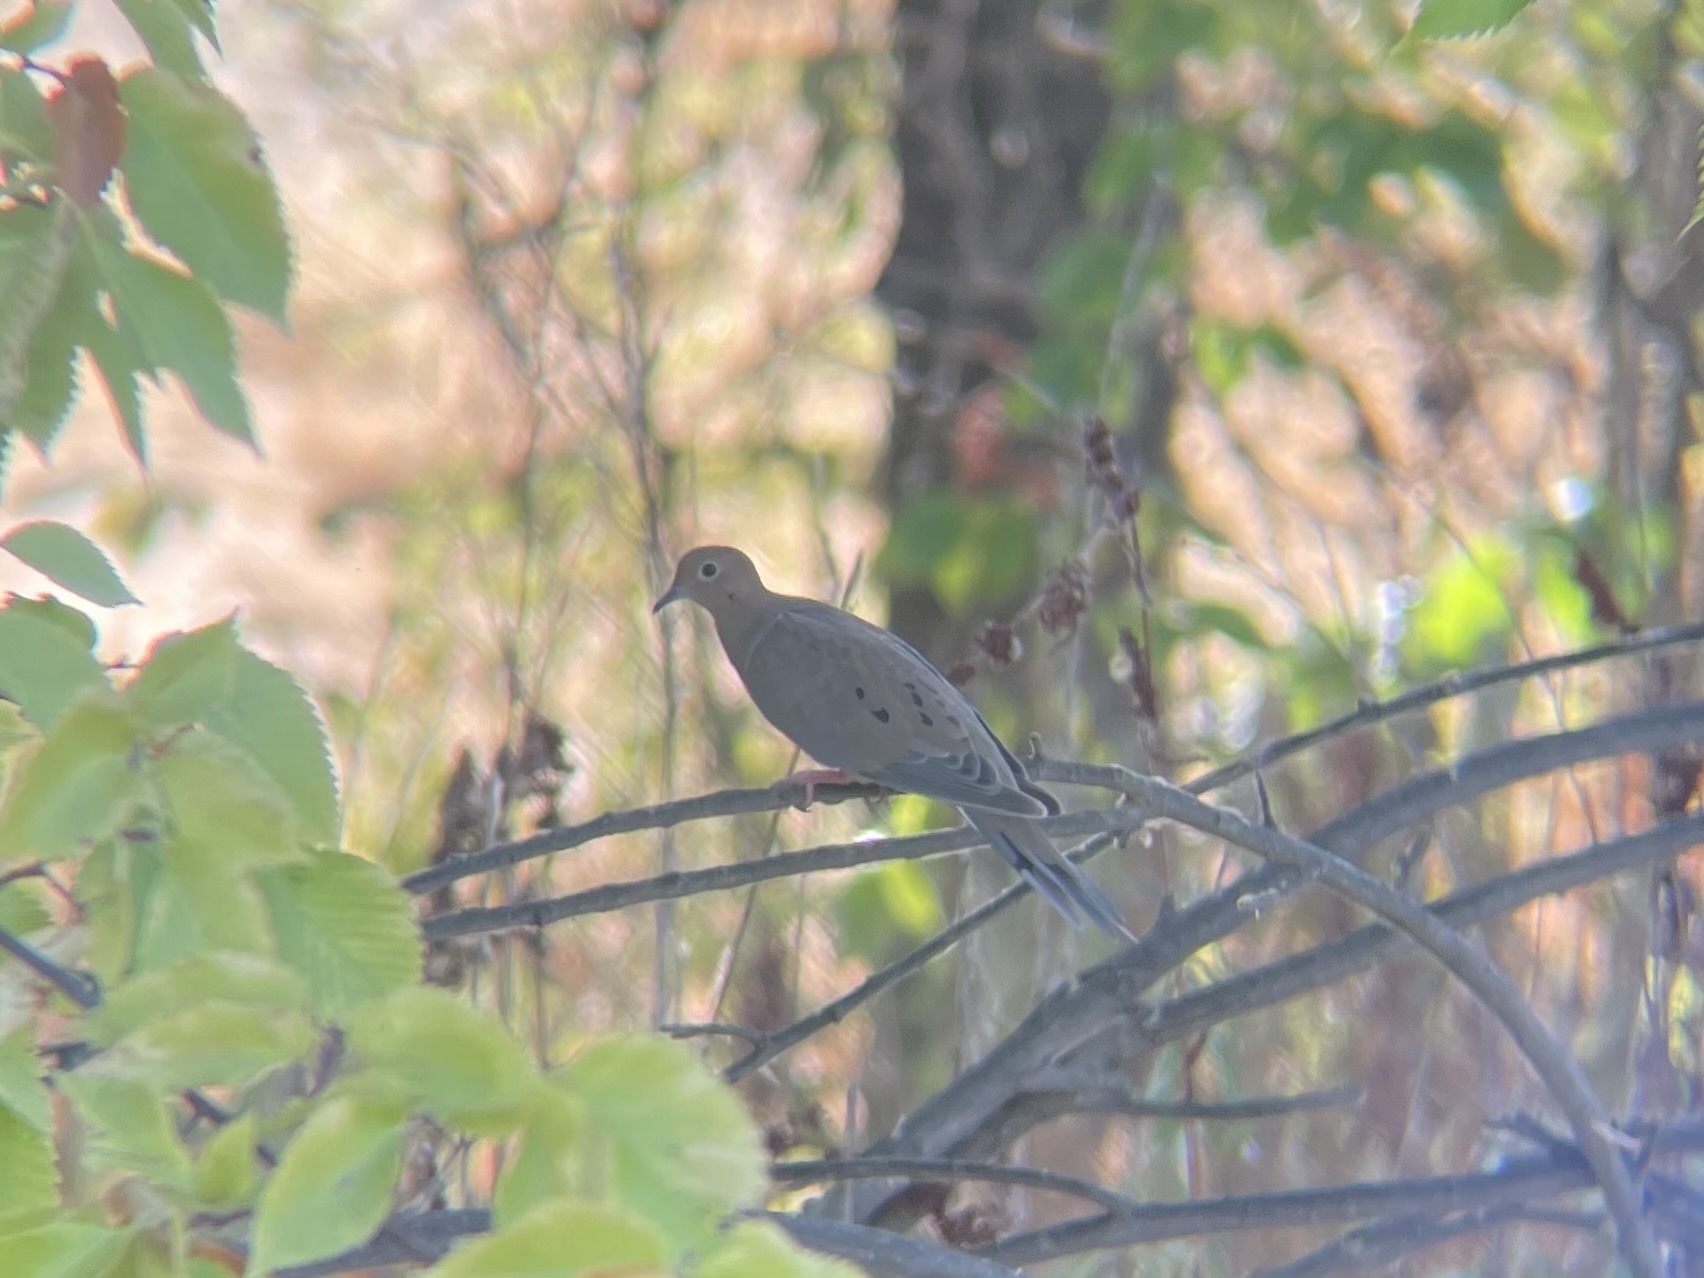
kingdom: Animalia
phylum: Chordata
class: Aves
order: Columbiformes
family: Columbidae
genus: Zenaida
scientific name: Zenaida macroura
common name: Mourning dove
